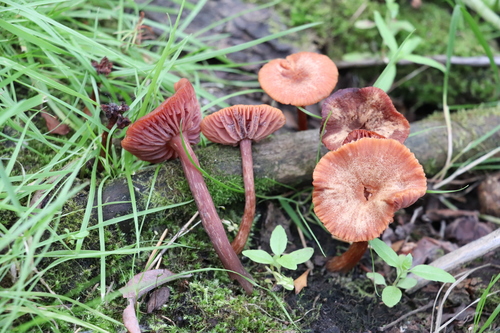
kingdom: Fungi
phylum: Basidiomycota
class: Agaricomycetes
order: Agaricales
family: Hydnangiaceae
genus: Laccaria
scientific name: Laccaria laccata
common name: Deceiver
